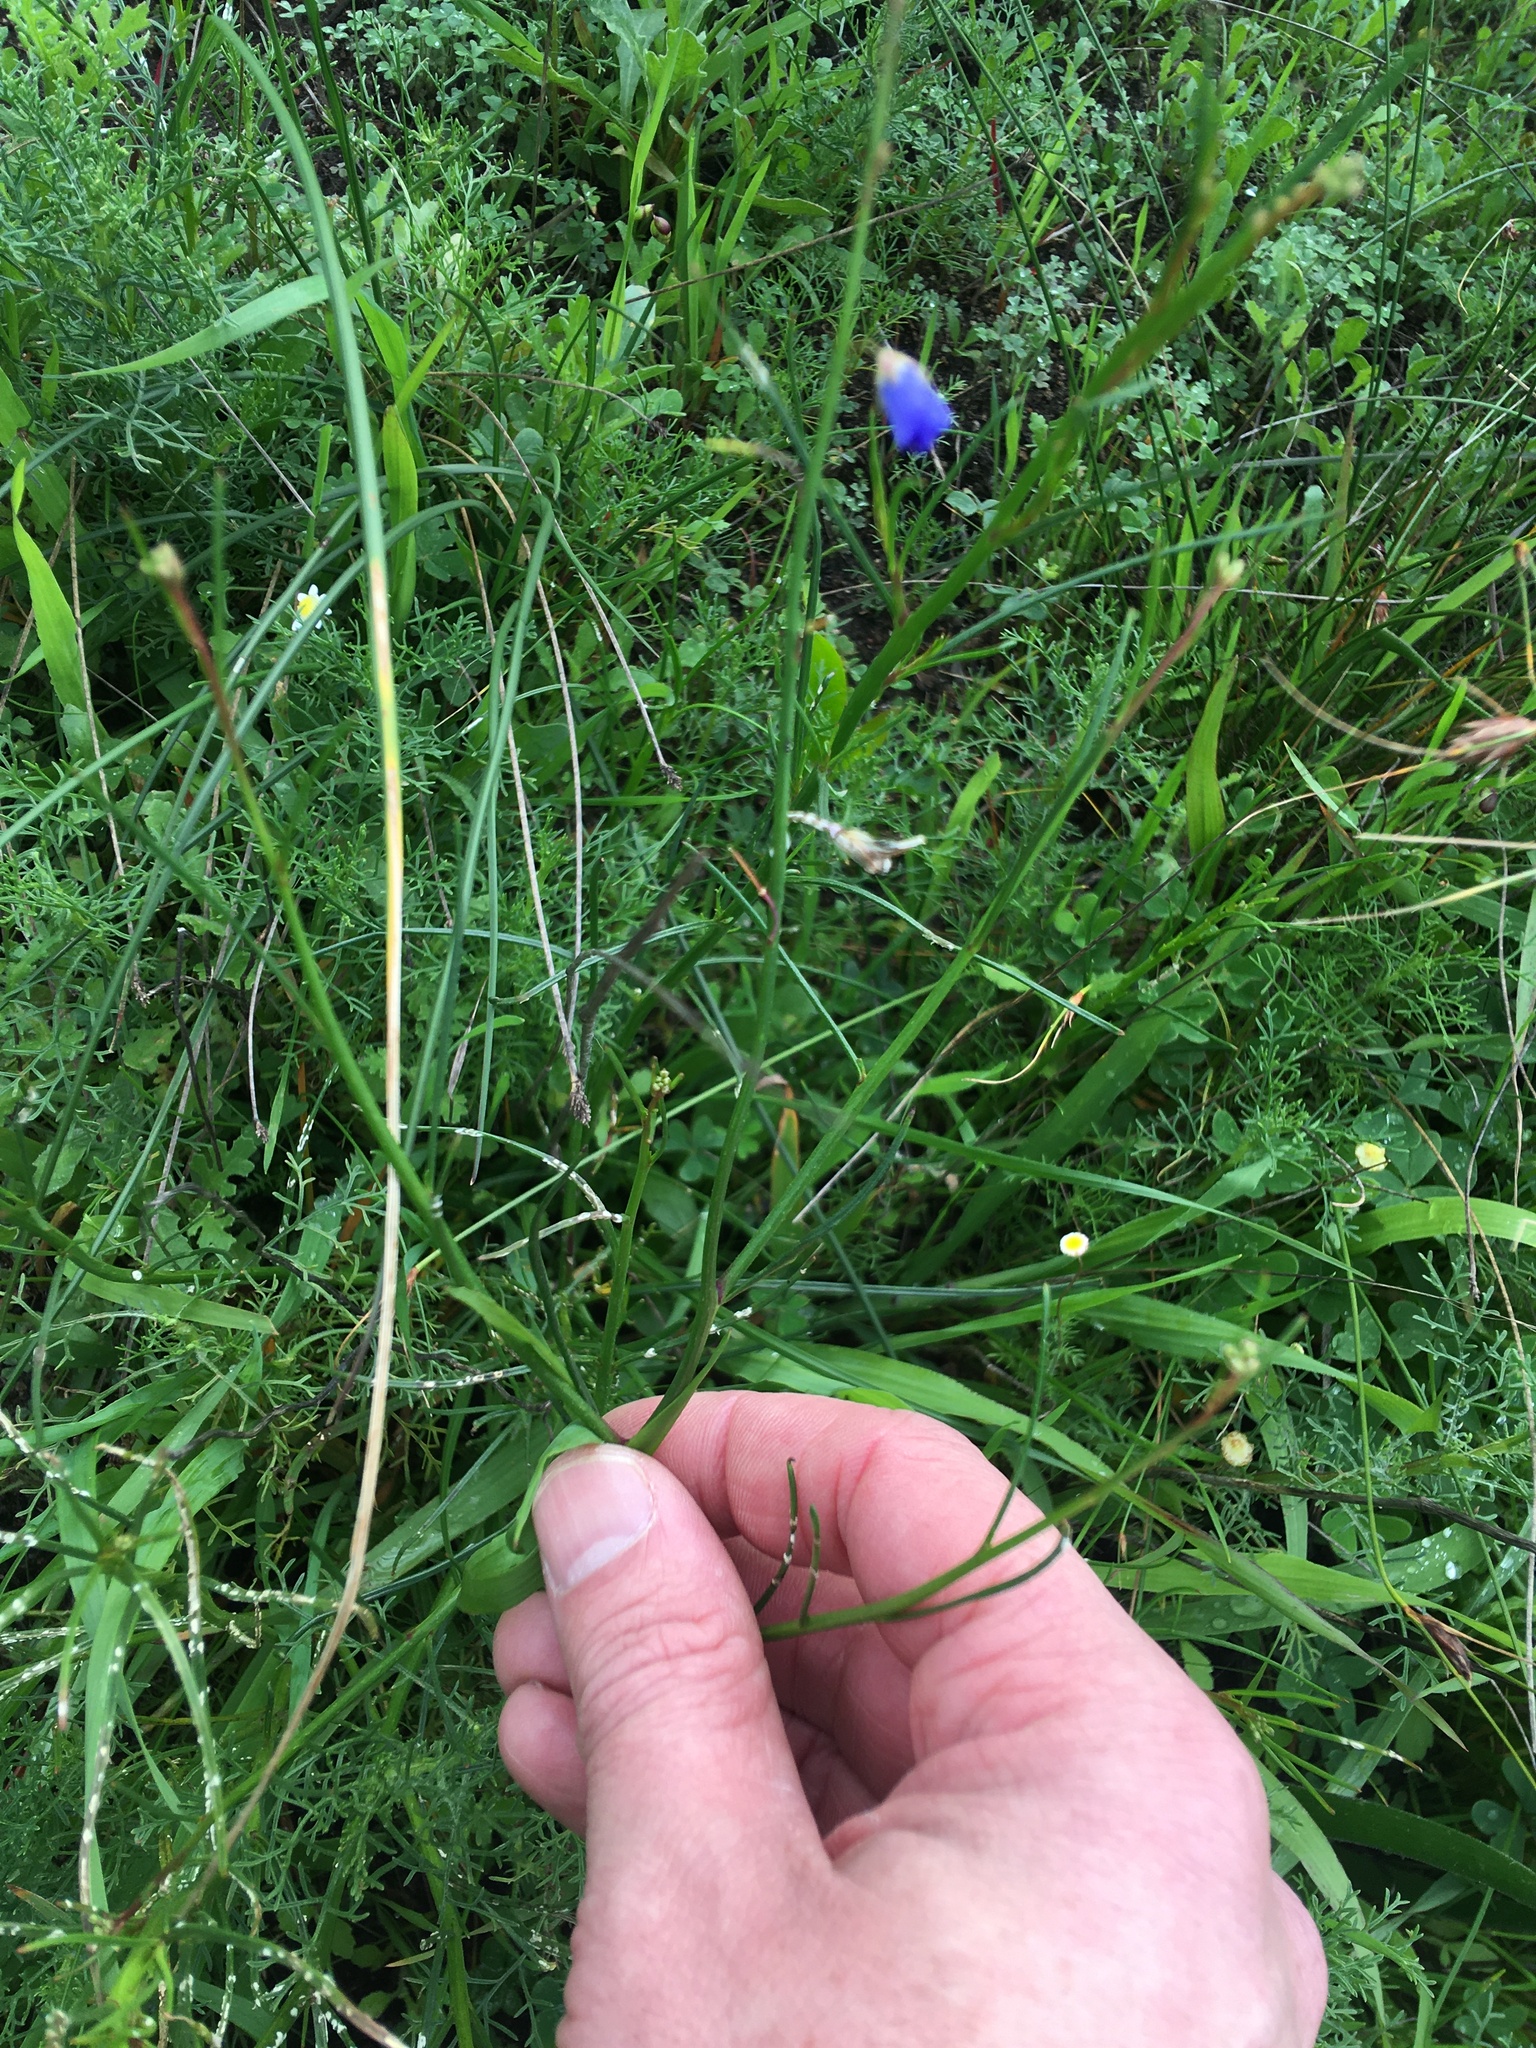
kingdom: Plantae
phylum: Tracheophyta
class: Magnoliopsida
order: Brassicales
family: Brassicaceae
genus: Heliophila
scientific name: Heliophila coronopifolia
